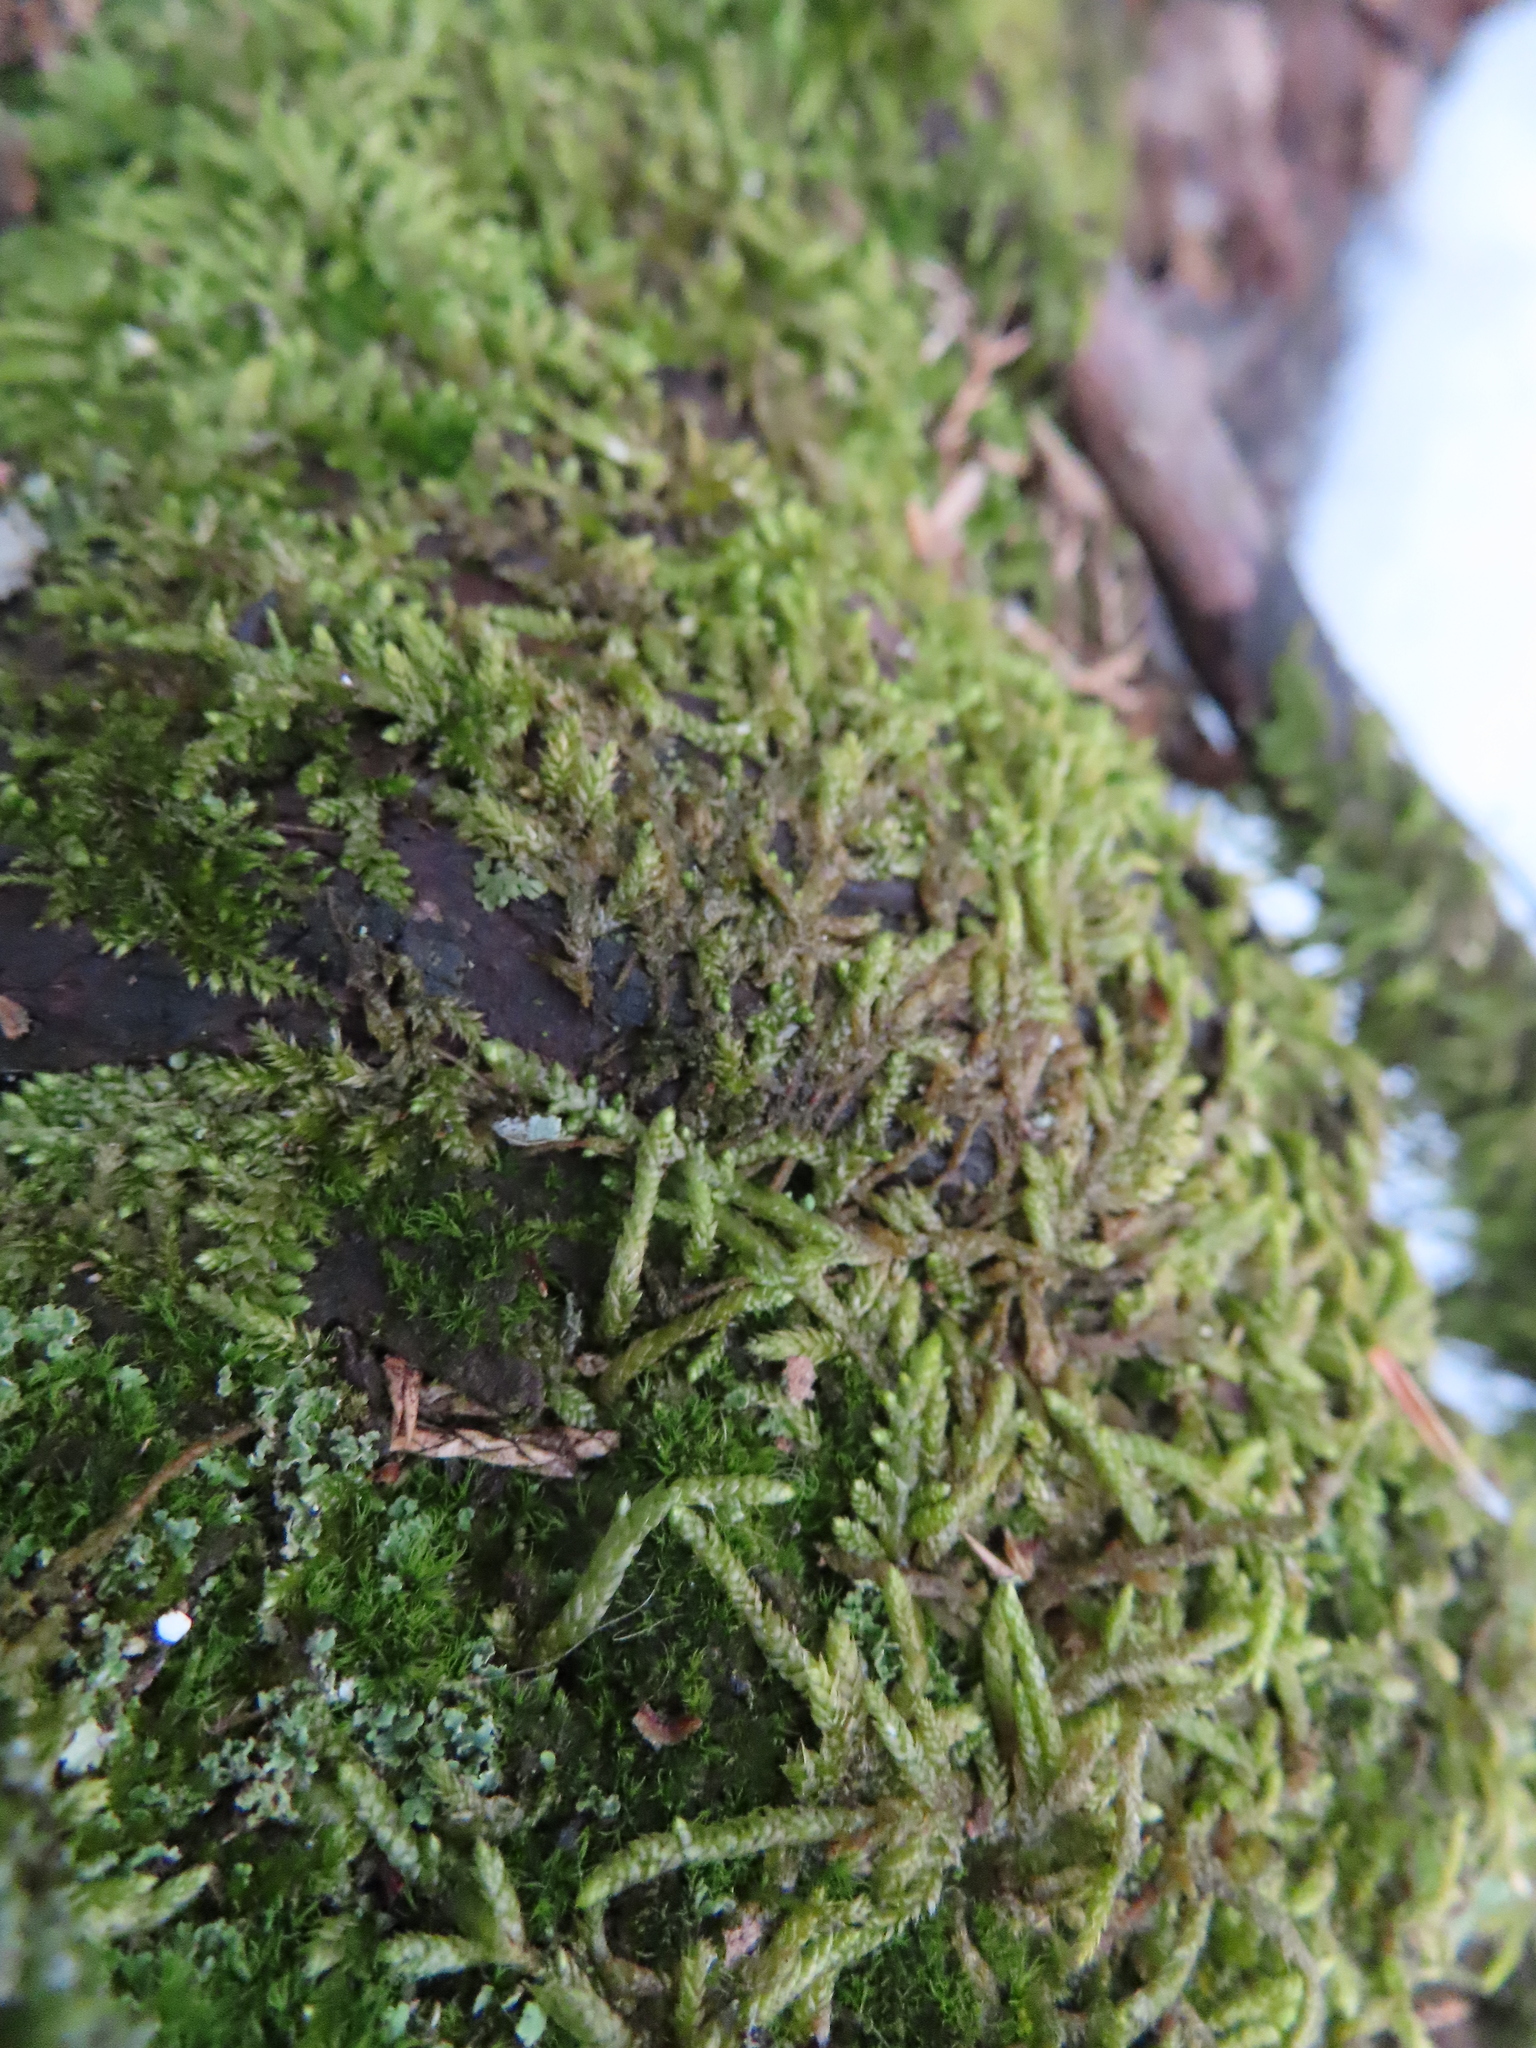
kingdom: Plantae
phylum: Bryophyta
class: Bryopsida
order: Hypnales
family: Entodontaceae
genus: Entodon
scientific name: Entodon seductrix
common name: Round-stemmed entodon moss
